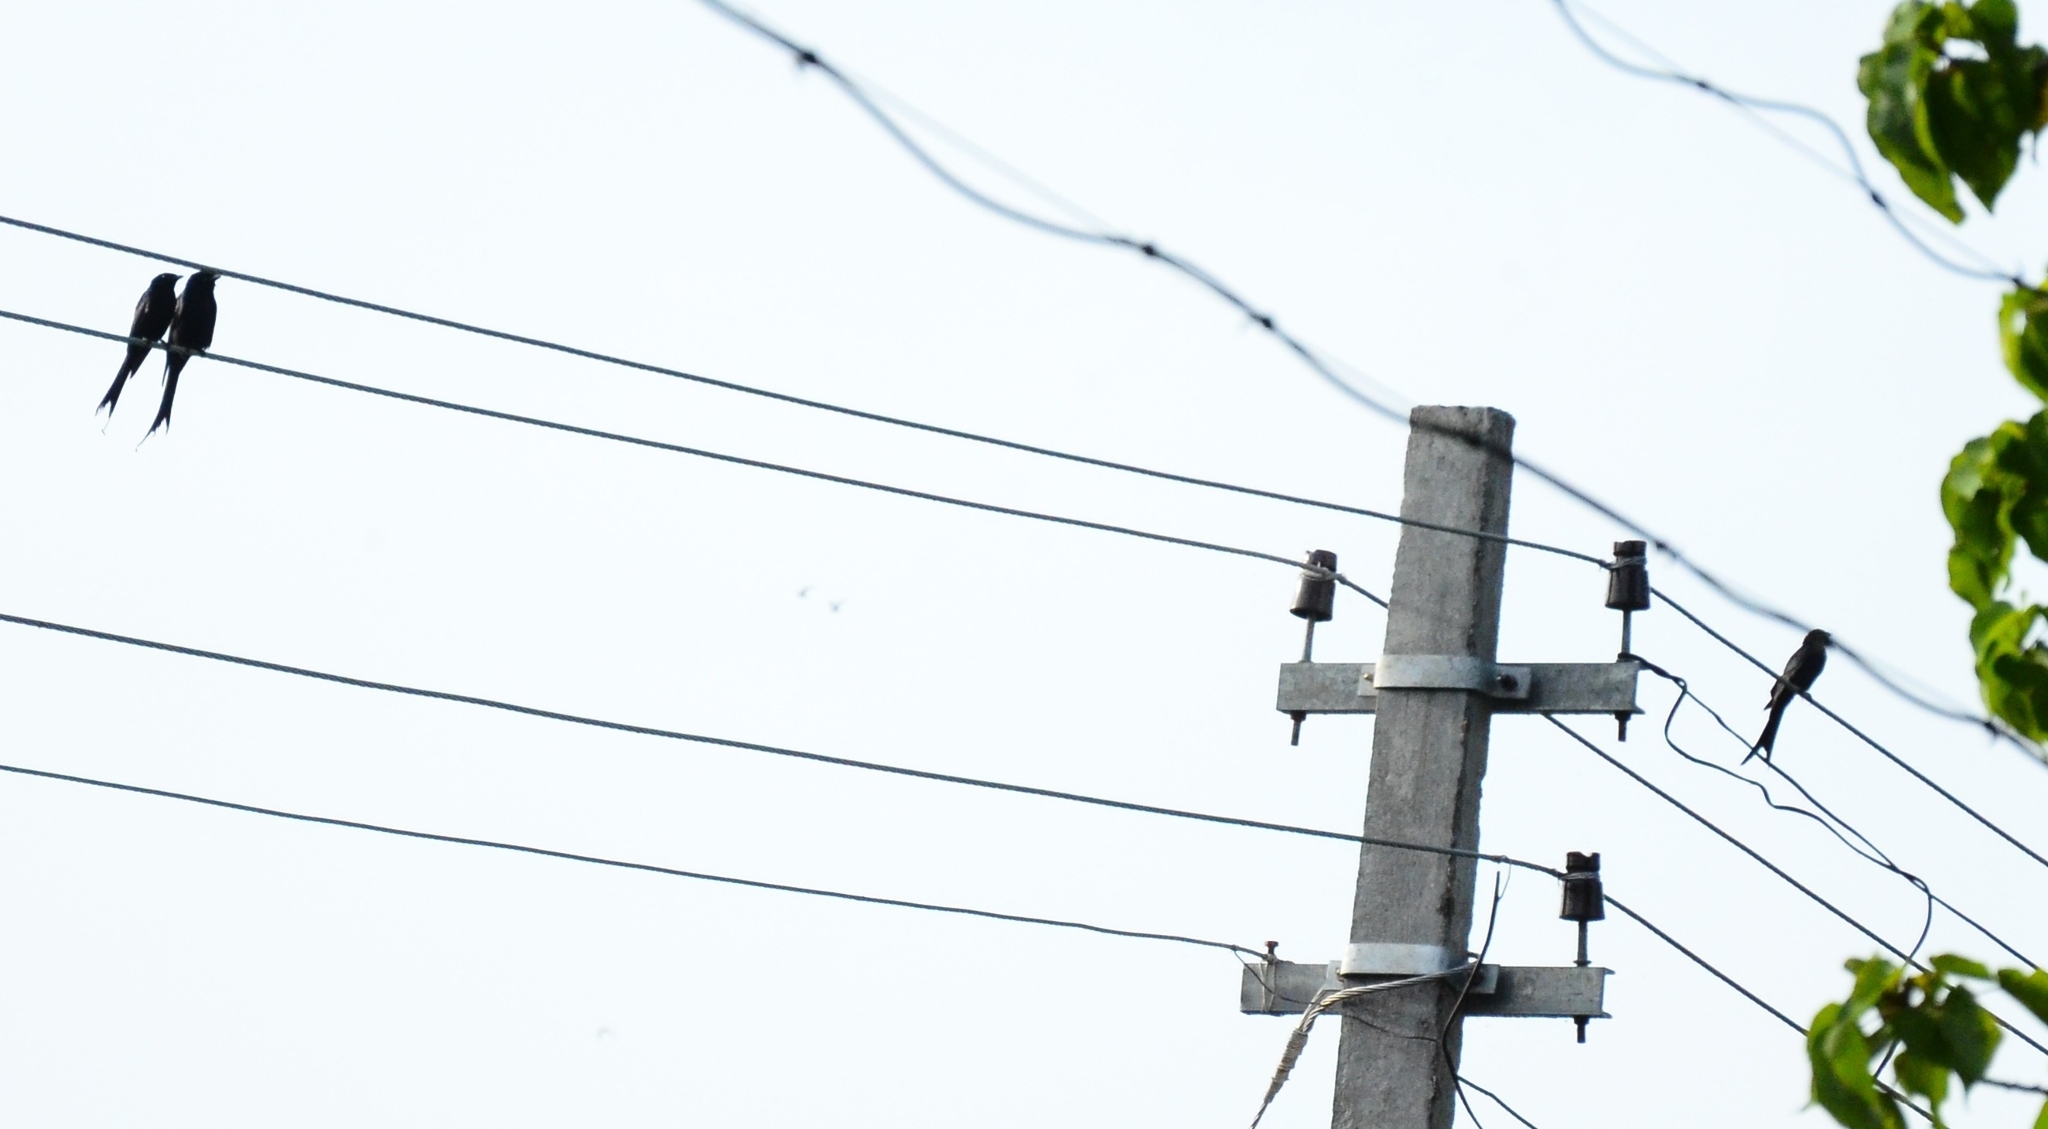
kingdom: Animalia
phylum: Chordata
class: Aves
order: Passeriformes
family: Dicruridae
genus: Dicrurus
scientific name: Dicrurus macrocercus
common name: Black drongo
